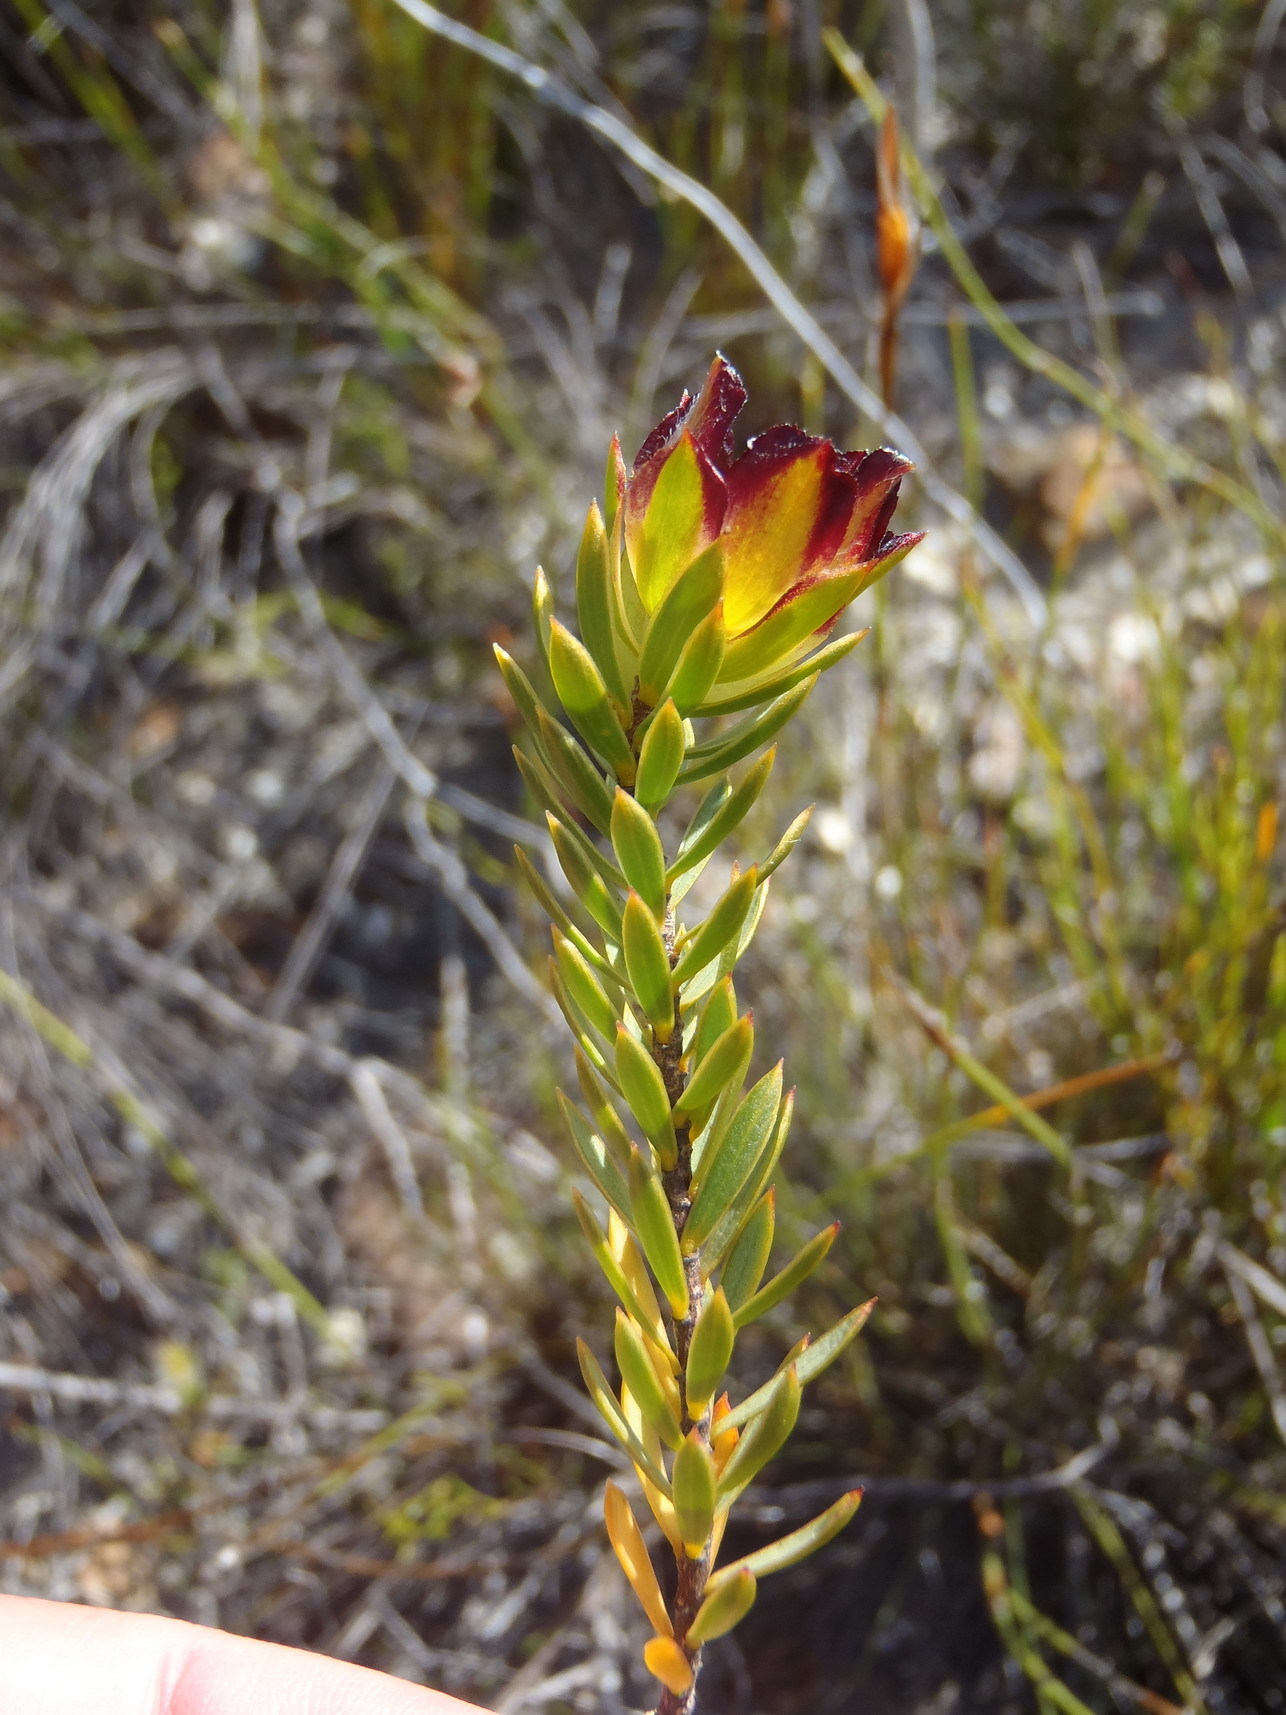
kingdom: Plantae
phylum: Tracheophyta
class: Magnoliopsida
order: Malvales
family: Thymelaeaceae
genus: Lachnaea
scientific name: Lachnaea aurea
